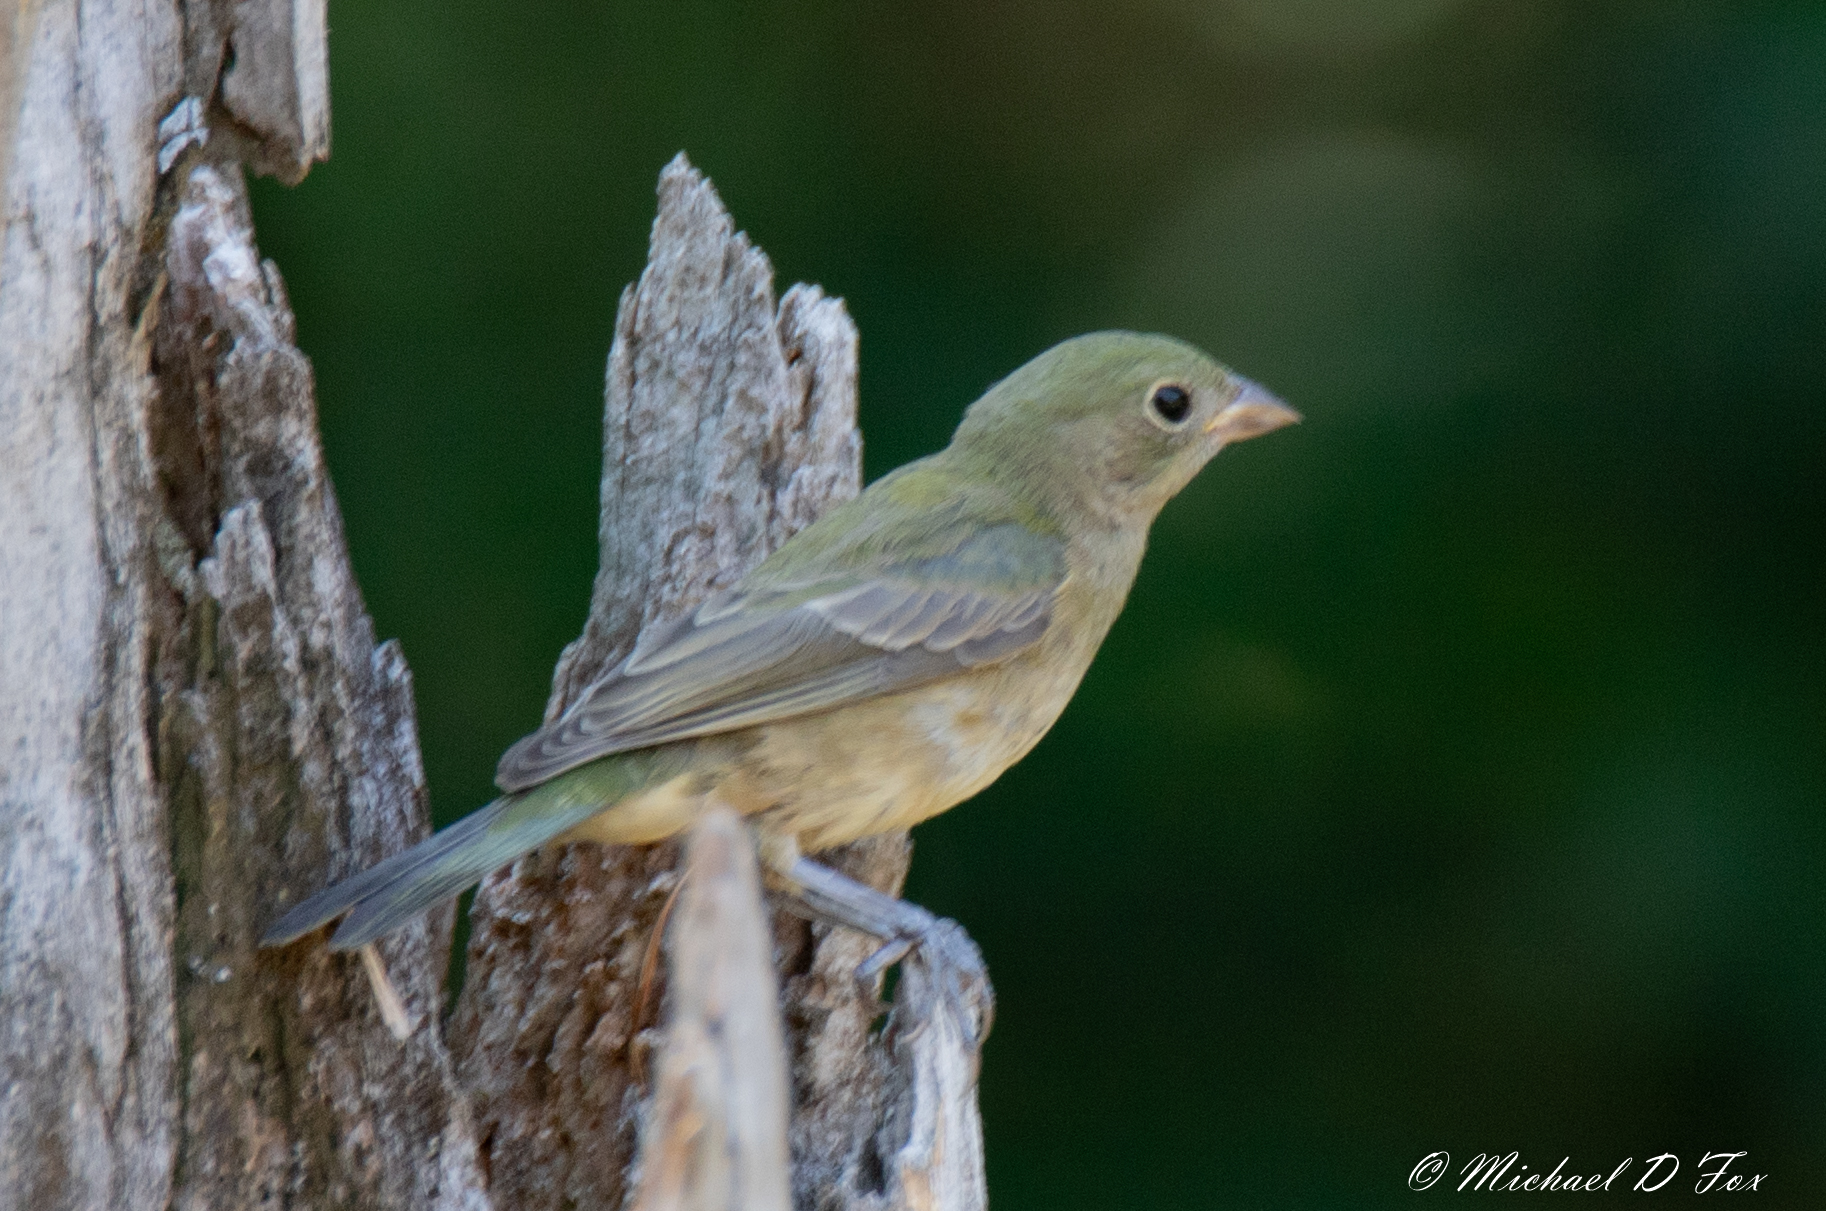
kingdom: Animalia
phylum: Chordata
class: Aves
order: Passeriformes
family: Cardinalidae
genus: Passerina
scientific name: Passerina ciris
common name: Painted bunting
